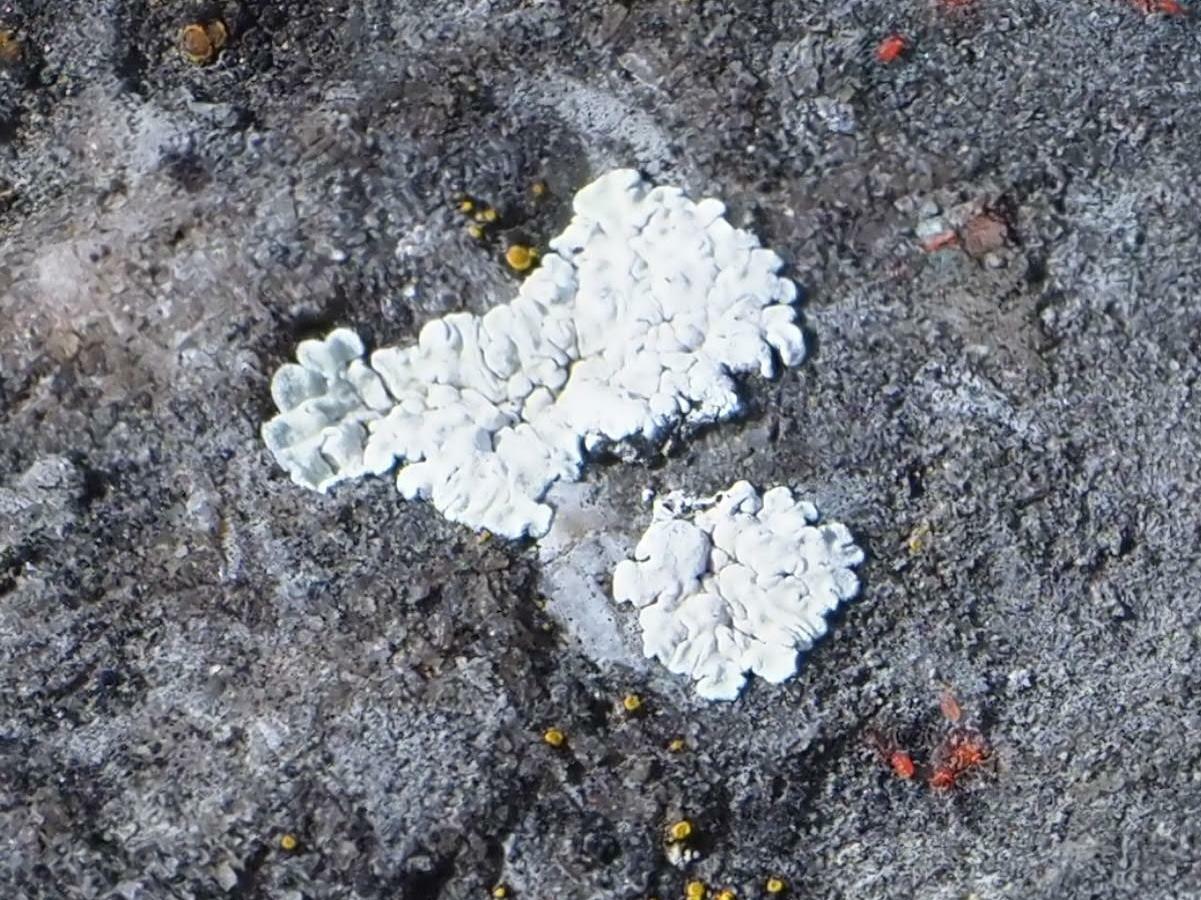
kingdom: Fungi
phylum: Ascomycota
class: Lecanoromycetes
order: Lecanorales
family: Lecanoraceae
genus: Protoparmeliopsis
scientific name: Protoparmeliopsis muralis
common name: Stonewall rim lichen
